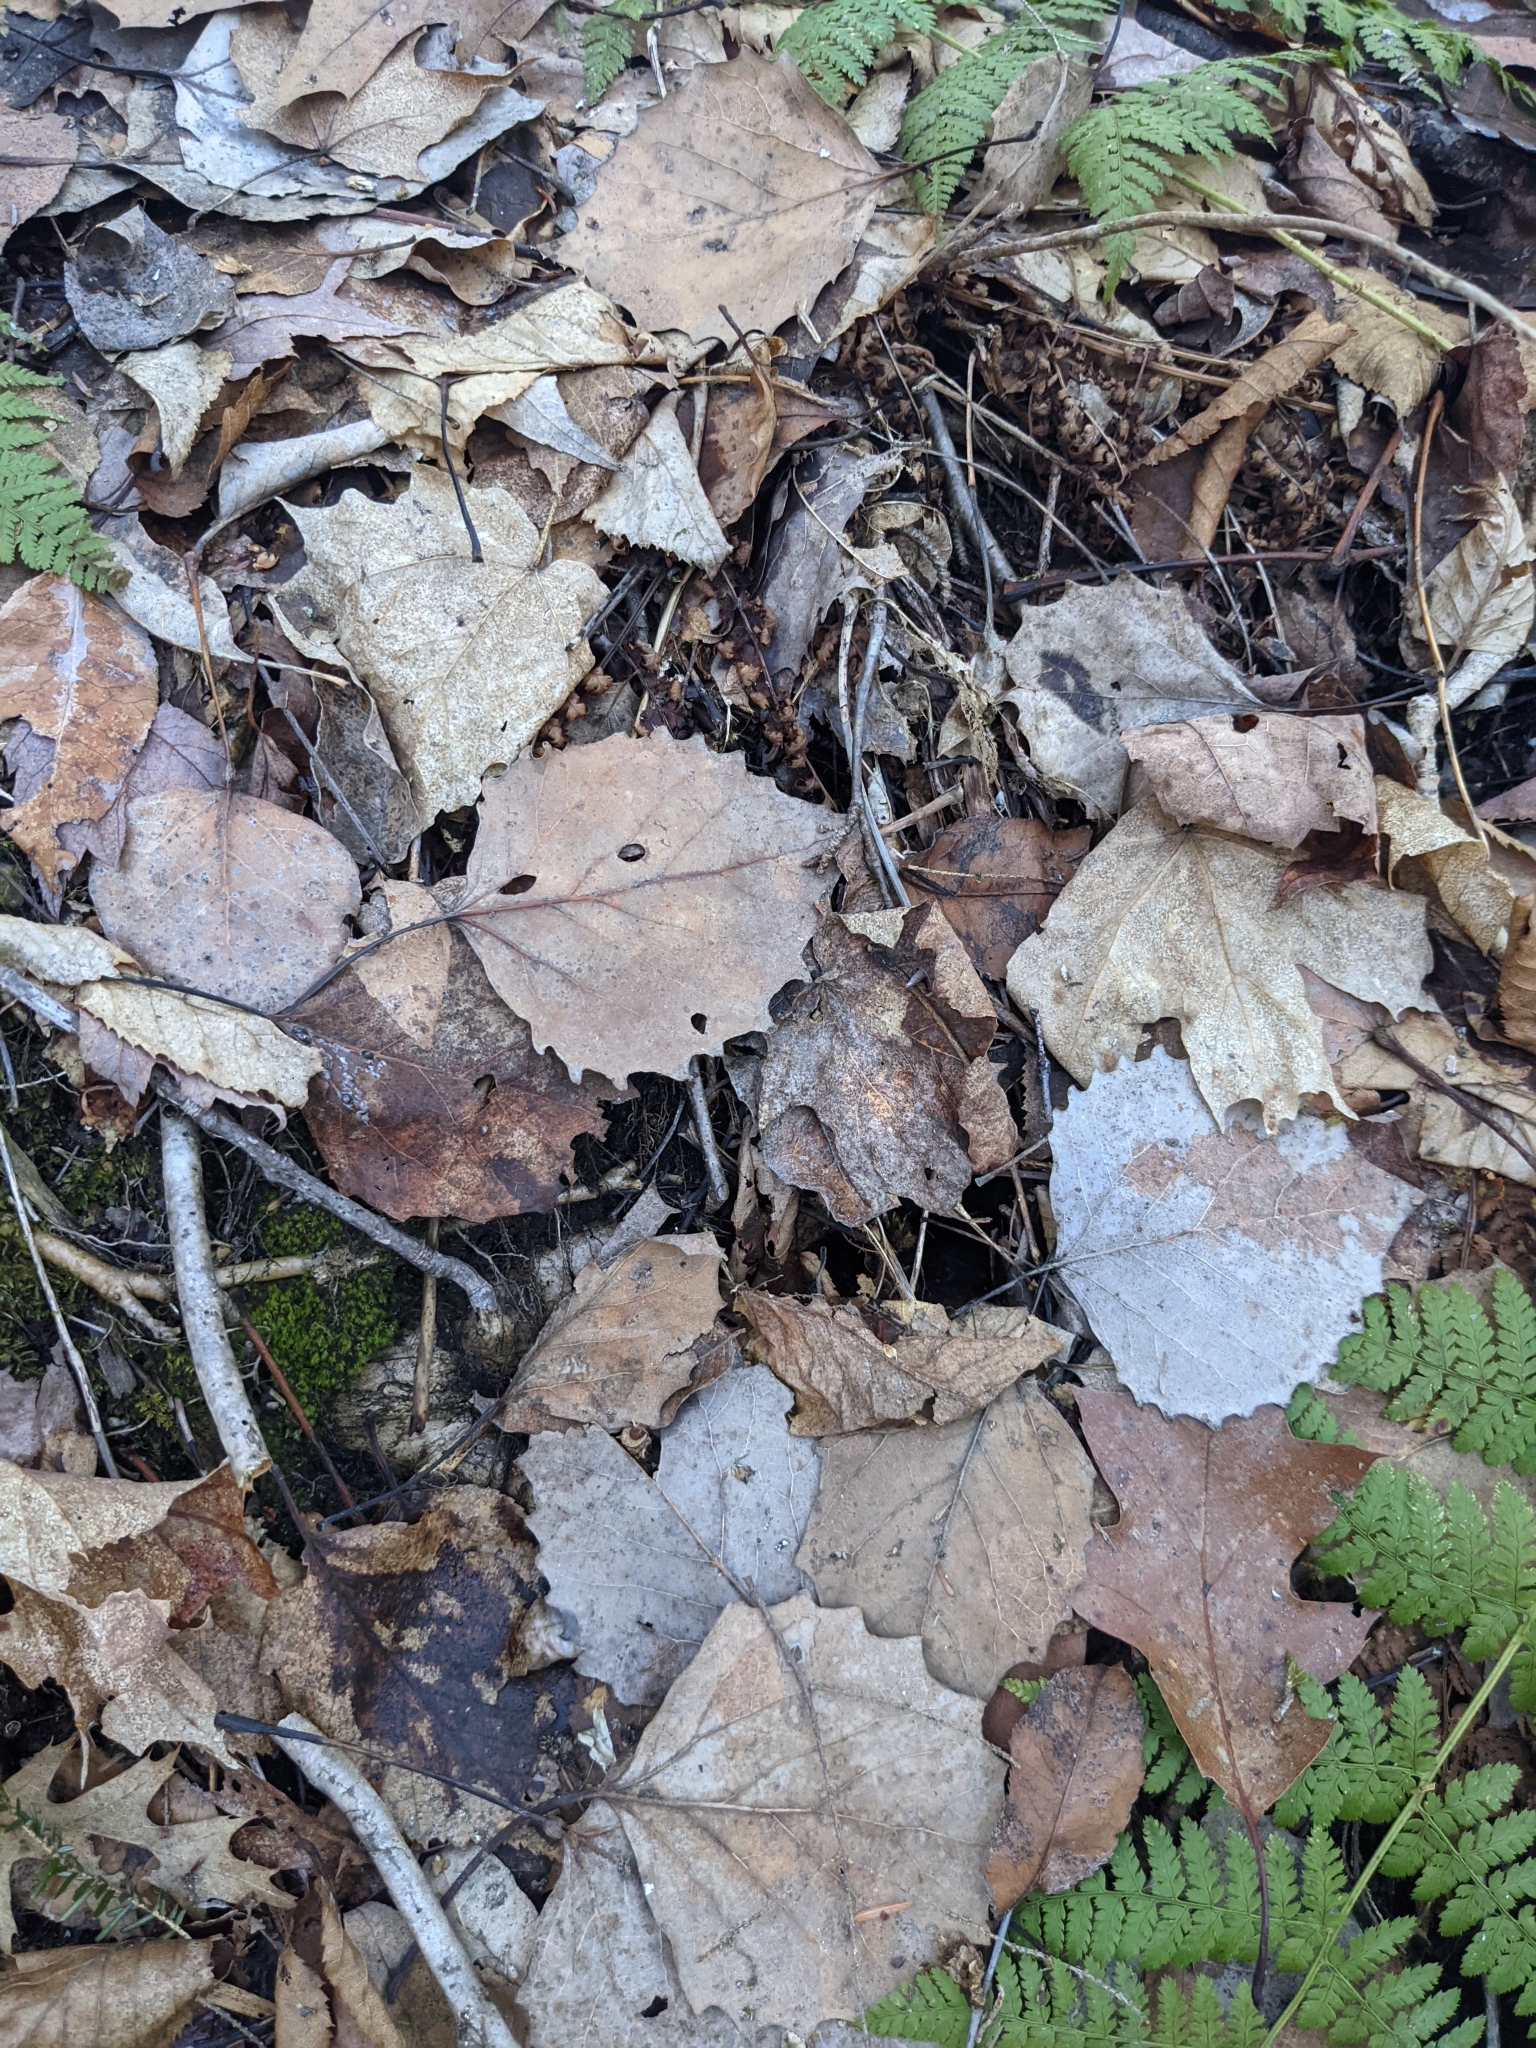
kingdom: Plantae
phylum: Tracheophyta
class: Magnoliopsida
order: Malpighiales
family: Salicaceae
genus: Populus
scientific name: Populus grandidentata
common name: Bigtooth aspen
